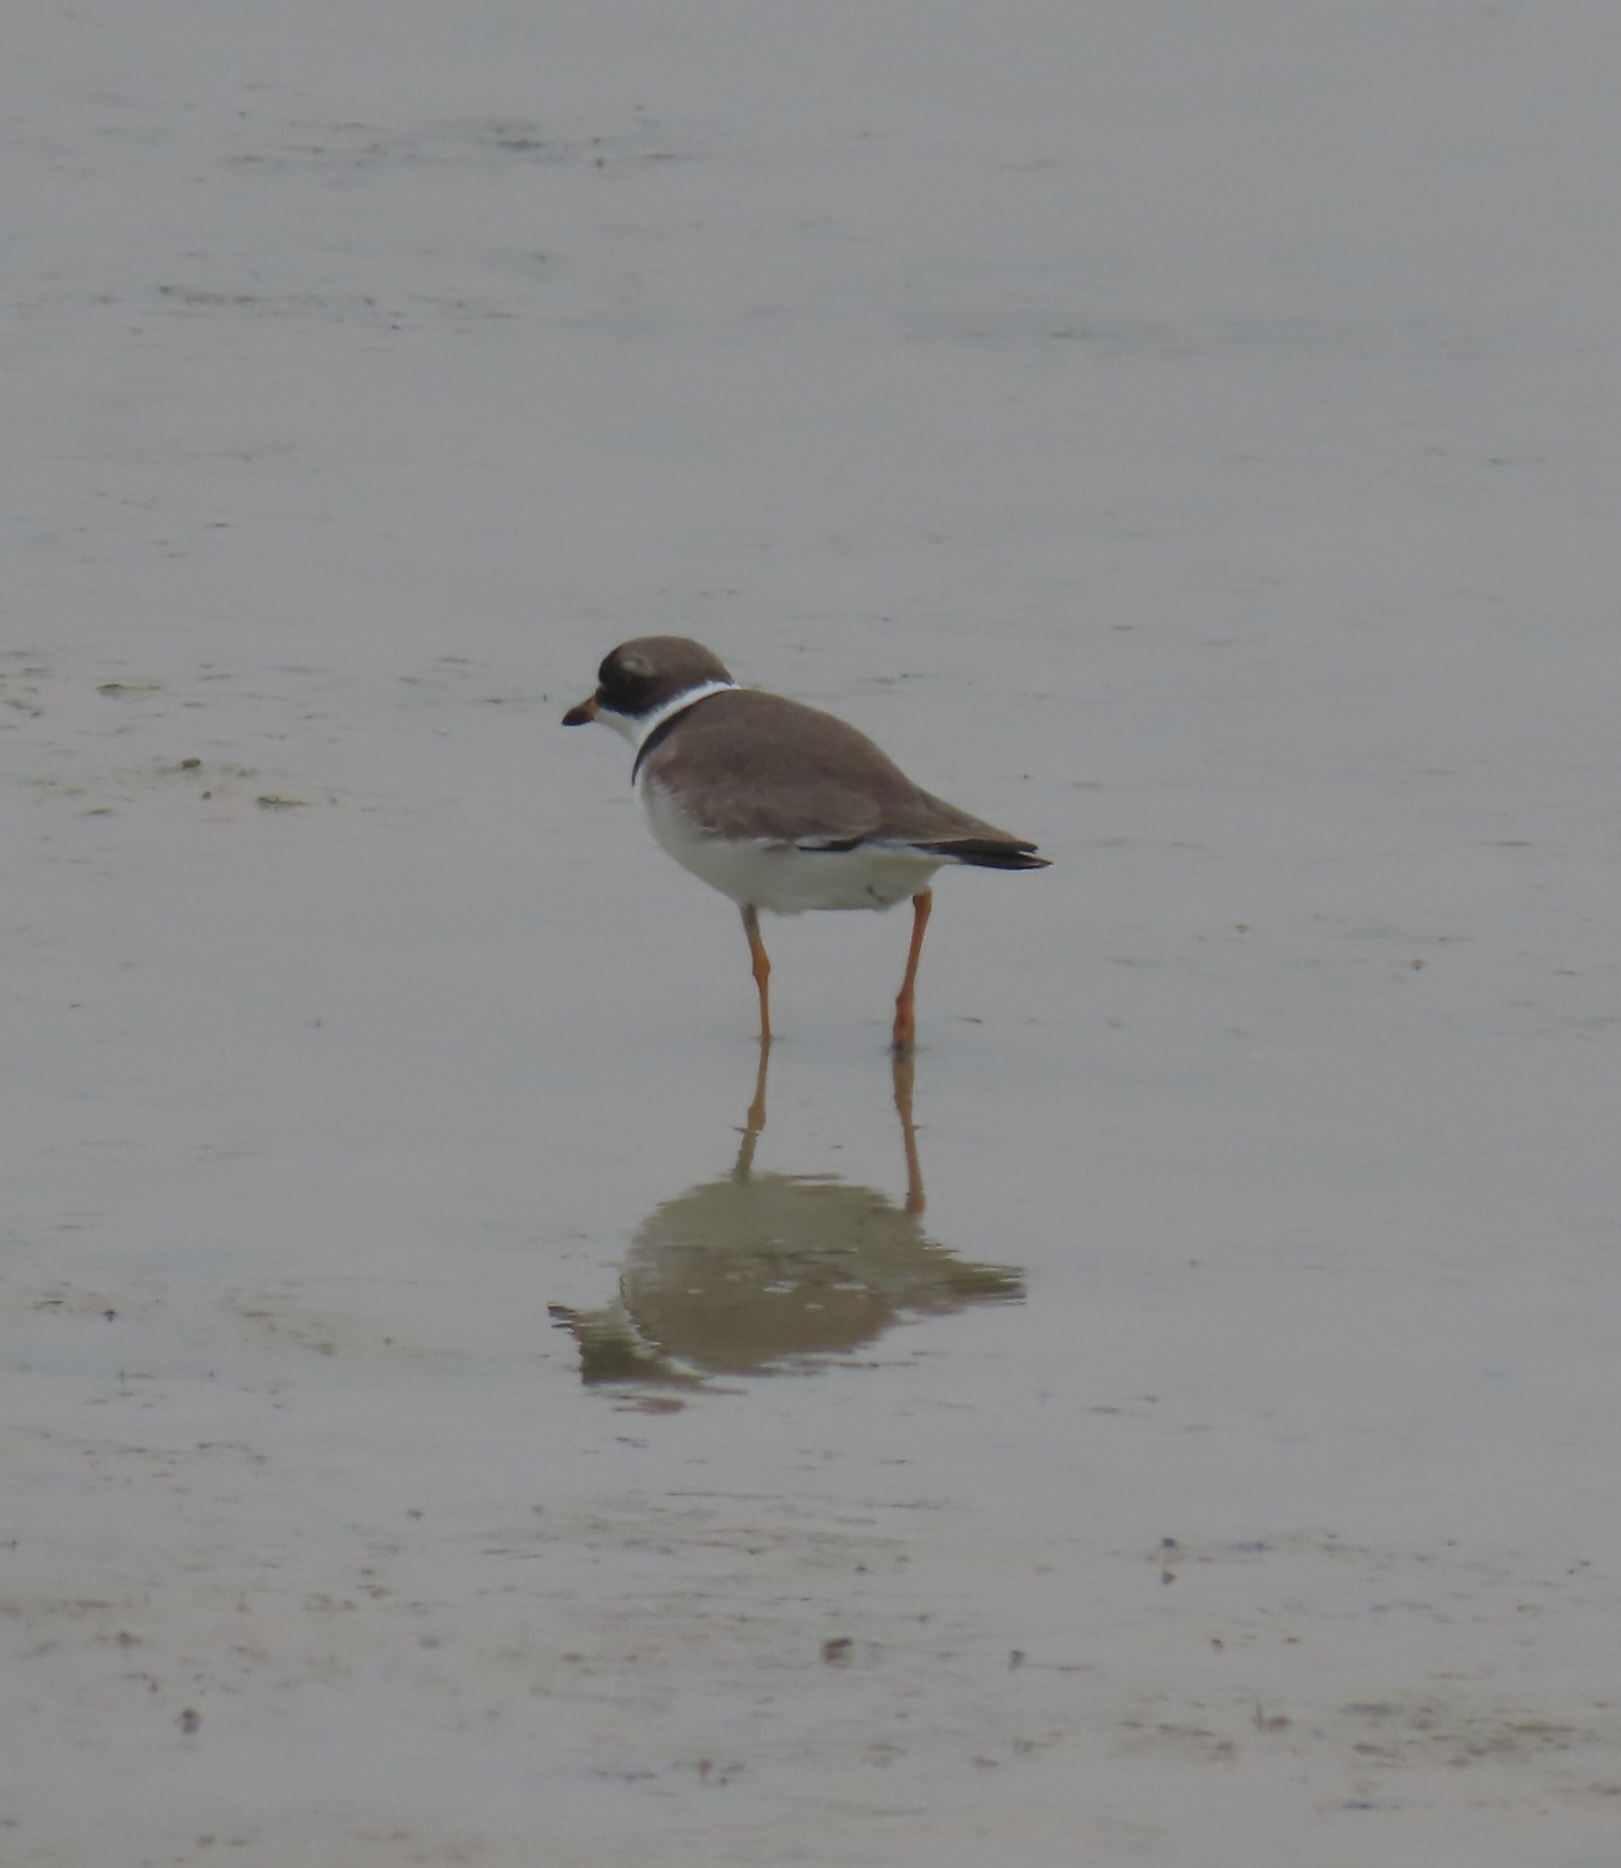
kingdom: Animalia
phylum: Chordata
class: Aves
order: Charadriiformes
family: Charadriidae
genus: Charadrius
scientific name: Charadrius semipalmatus
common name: Semipalmated plover
